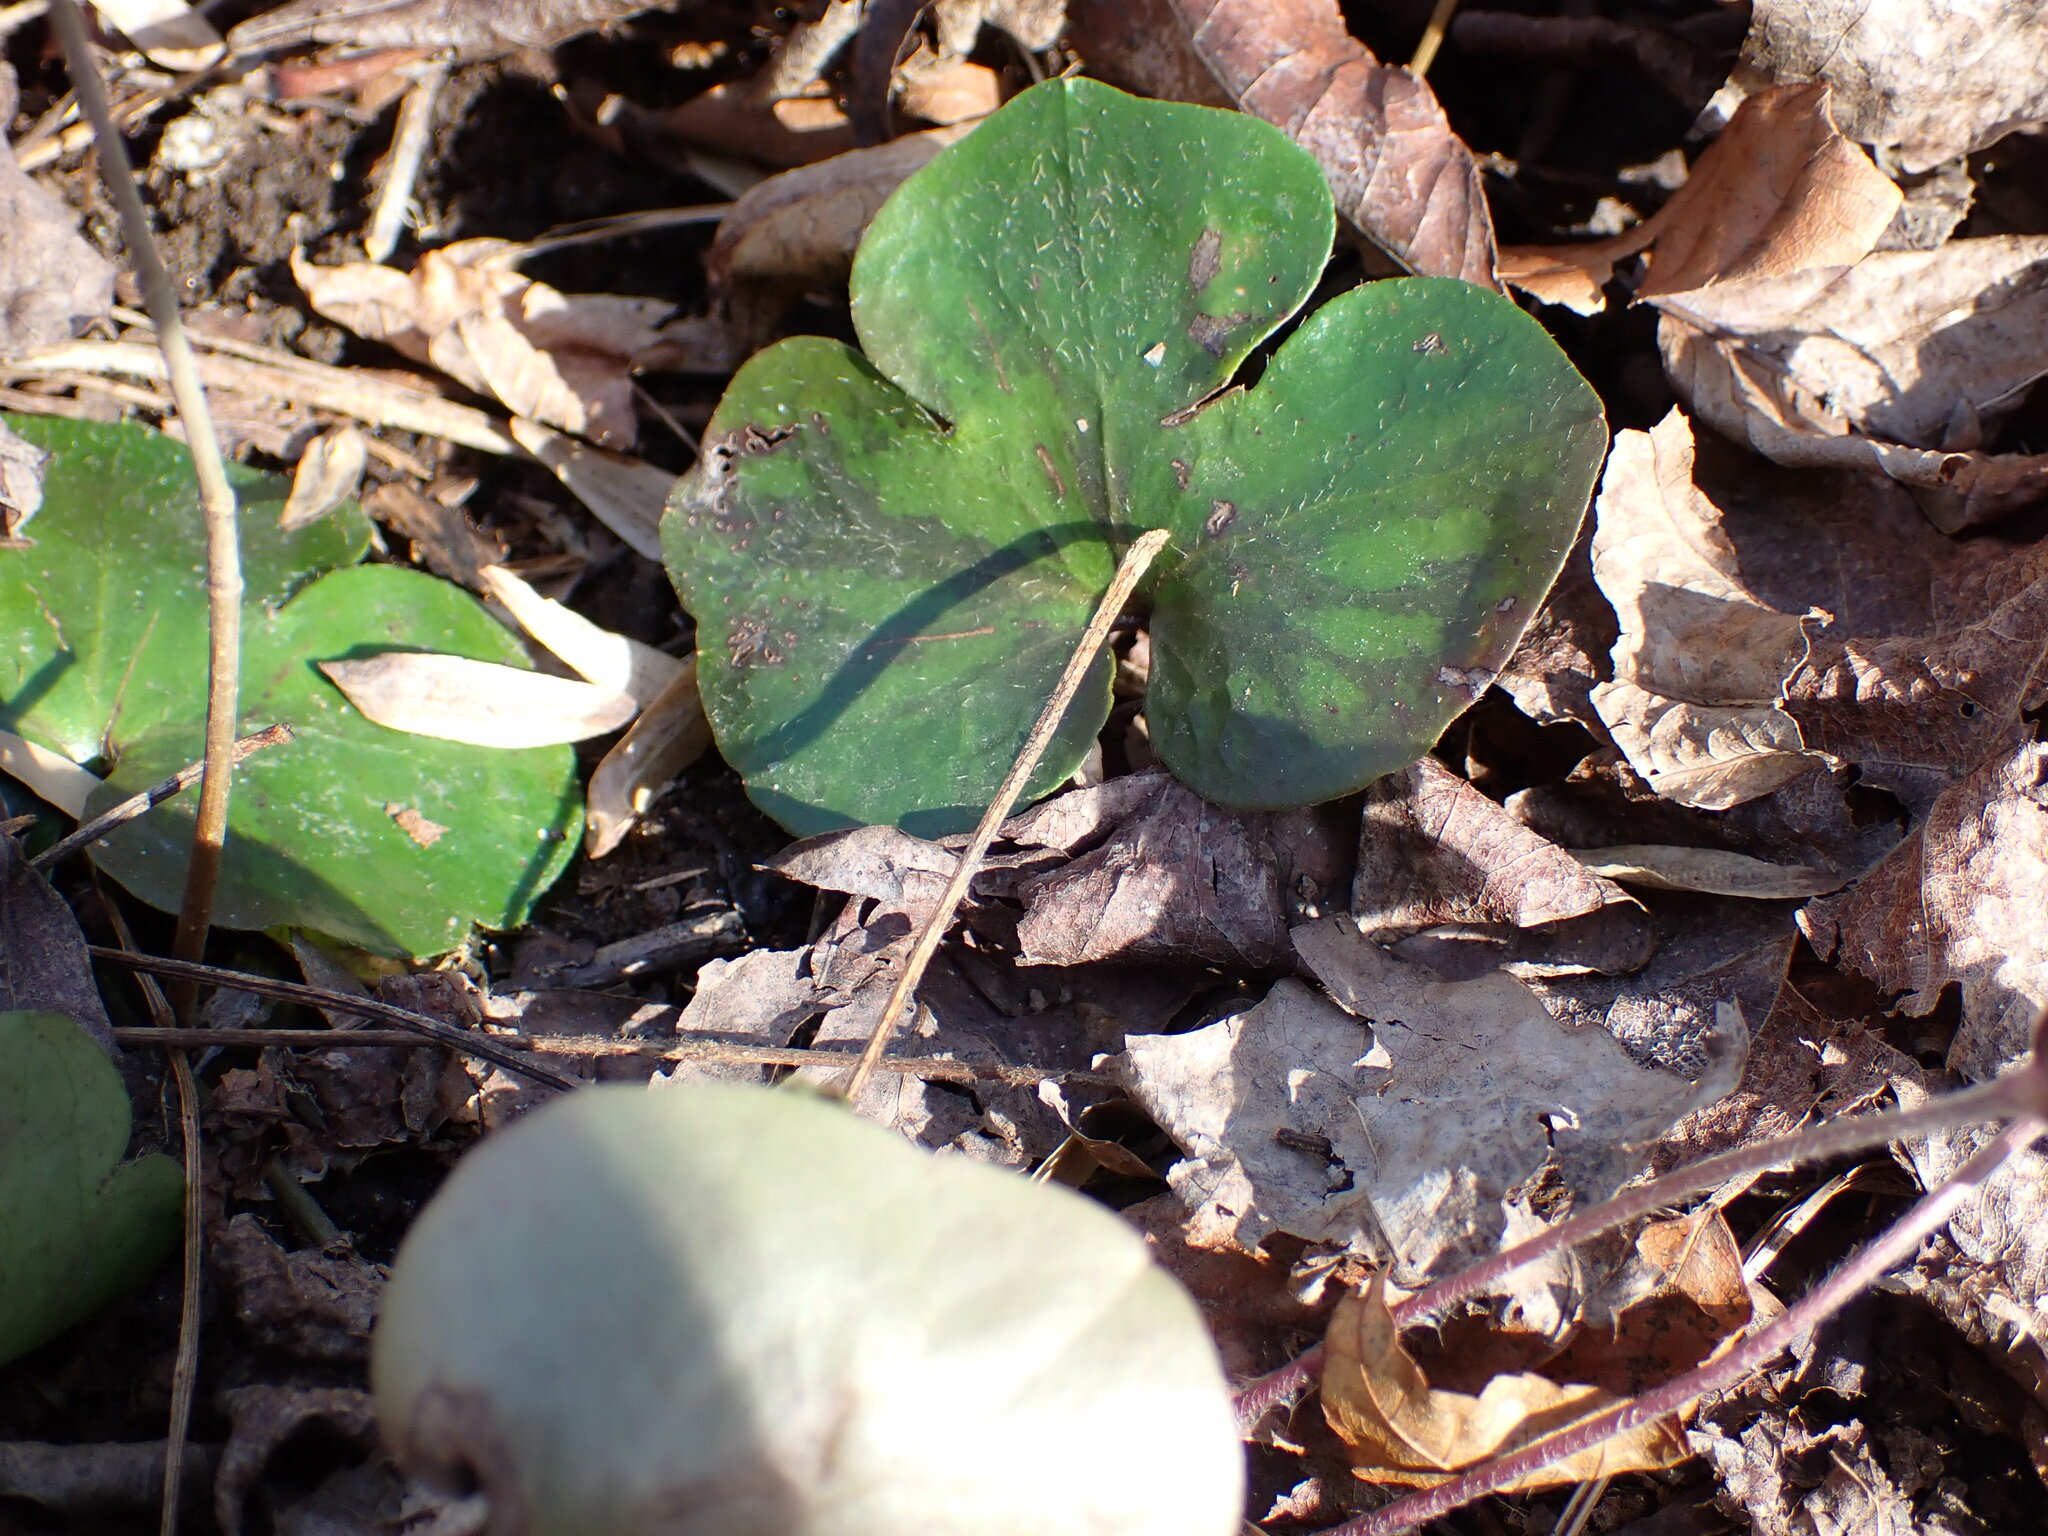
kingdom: Plantae
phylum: Tracheophyta
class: Magnoliopsida
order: Ranunculales
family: Ranunculaceae
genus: Hepatica
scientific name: Hepatica americana
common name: American hepatica
